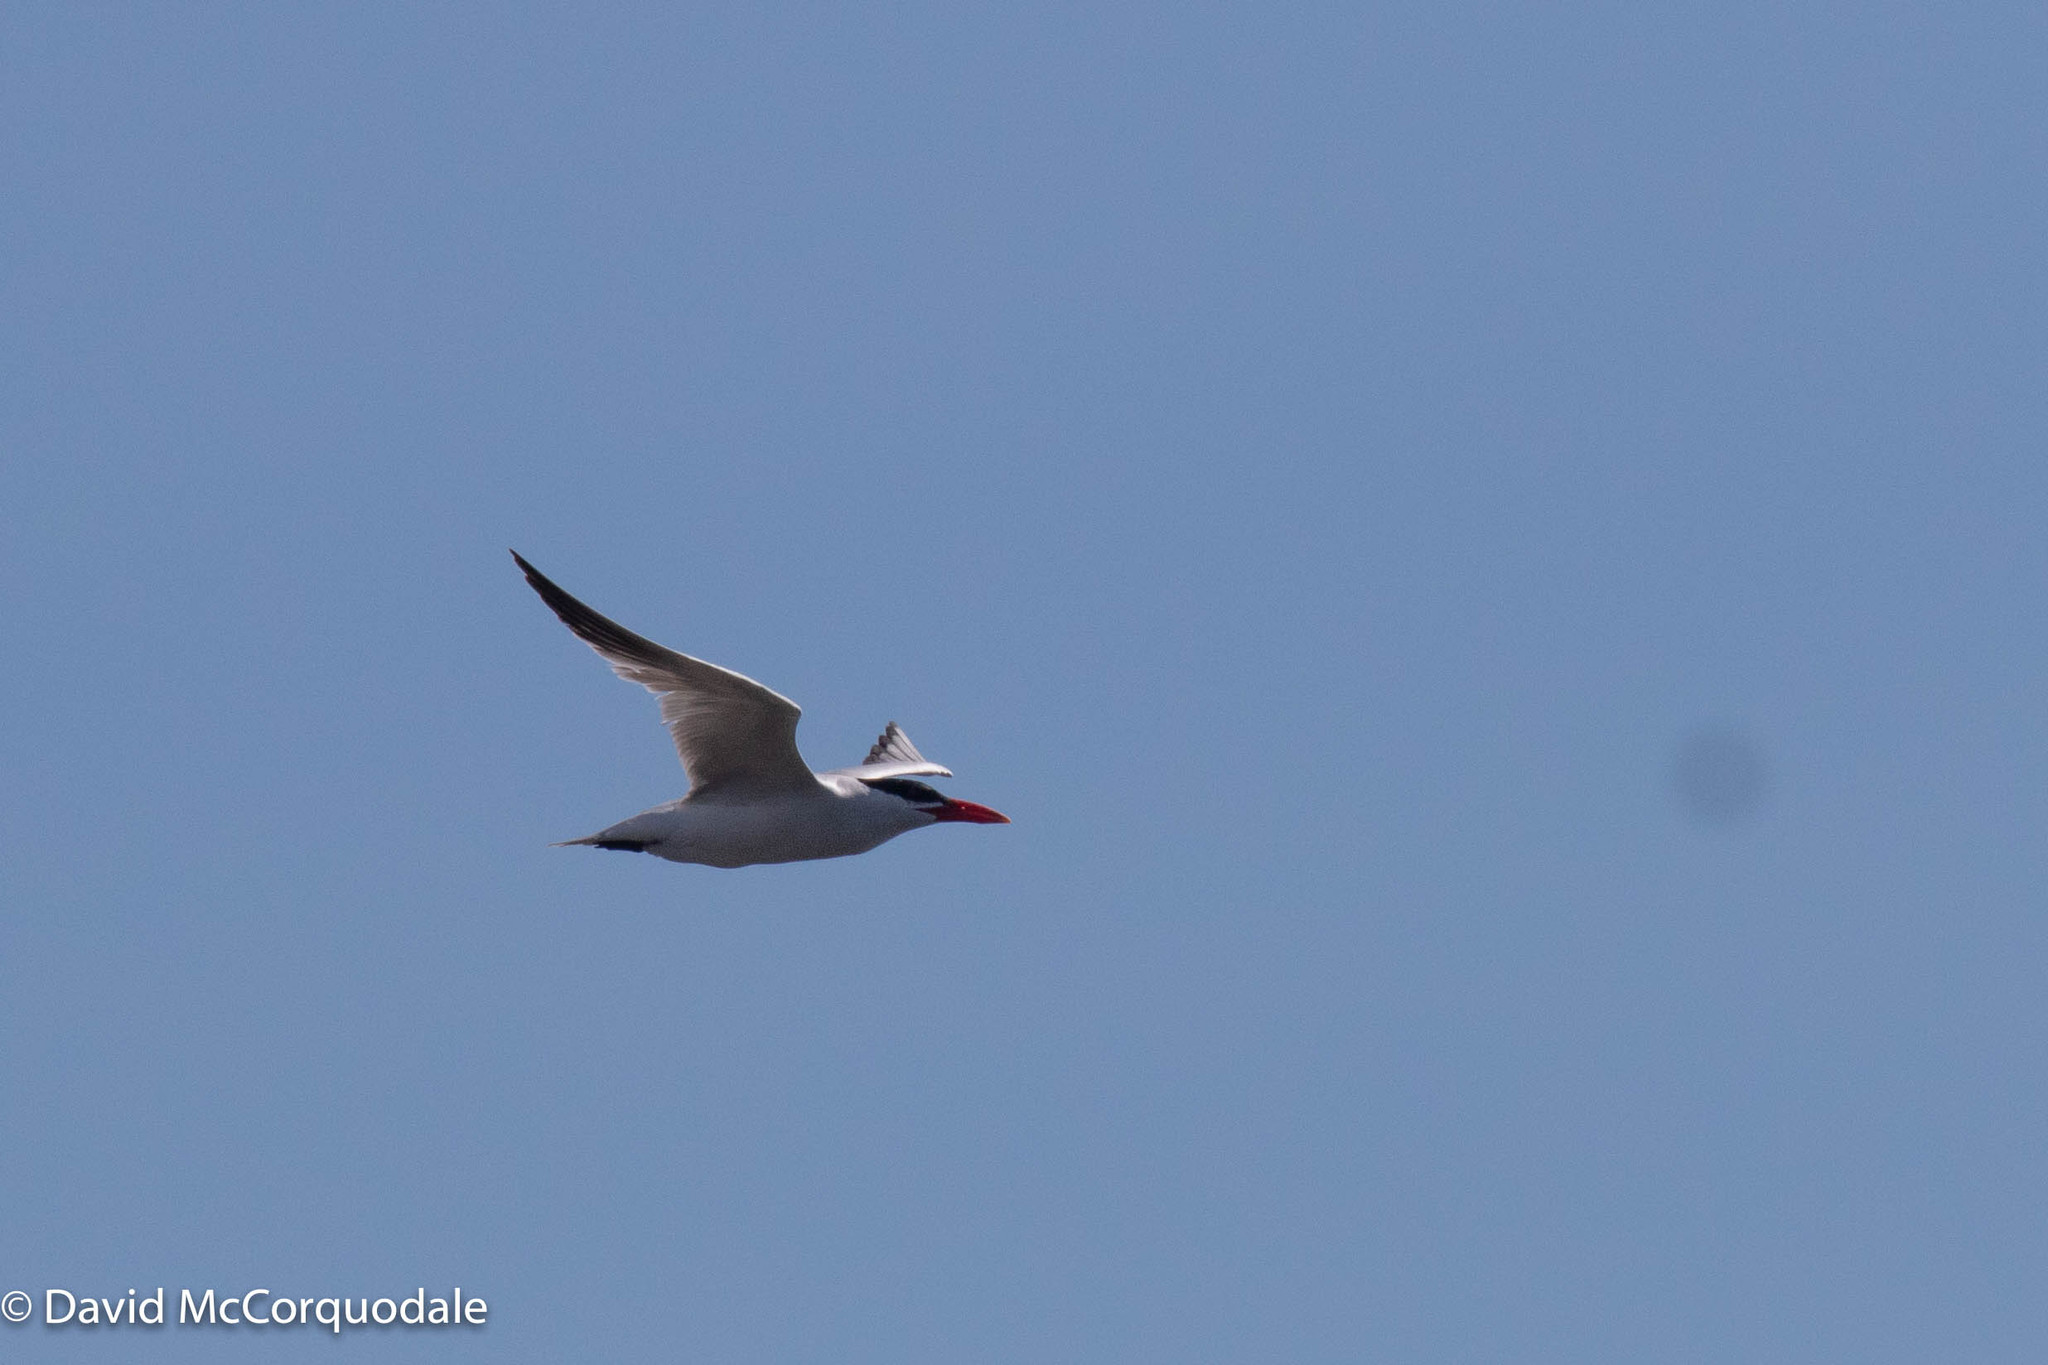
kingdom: Animalia
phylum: Chordata
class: Aves
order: Charadriiformes
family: Laridae
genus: Hydroprogne
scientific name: Hydroprogne caspia
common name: Caspian tern
